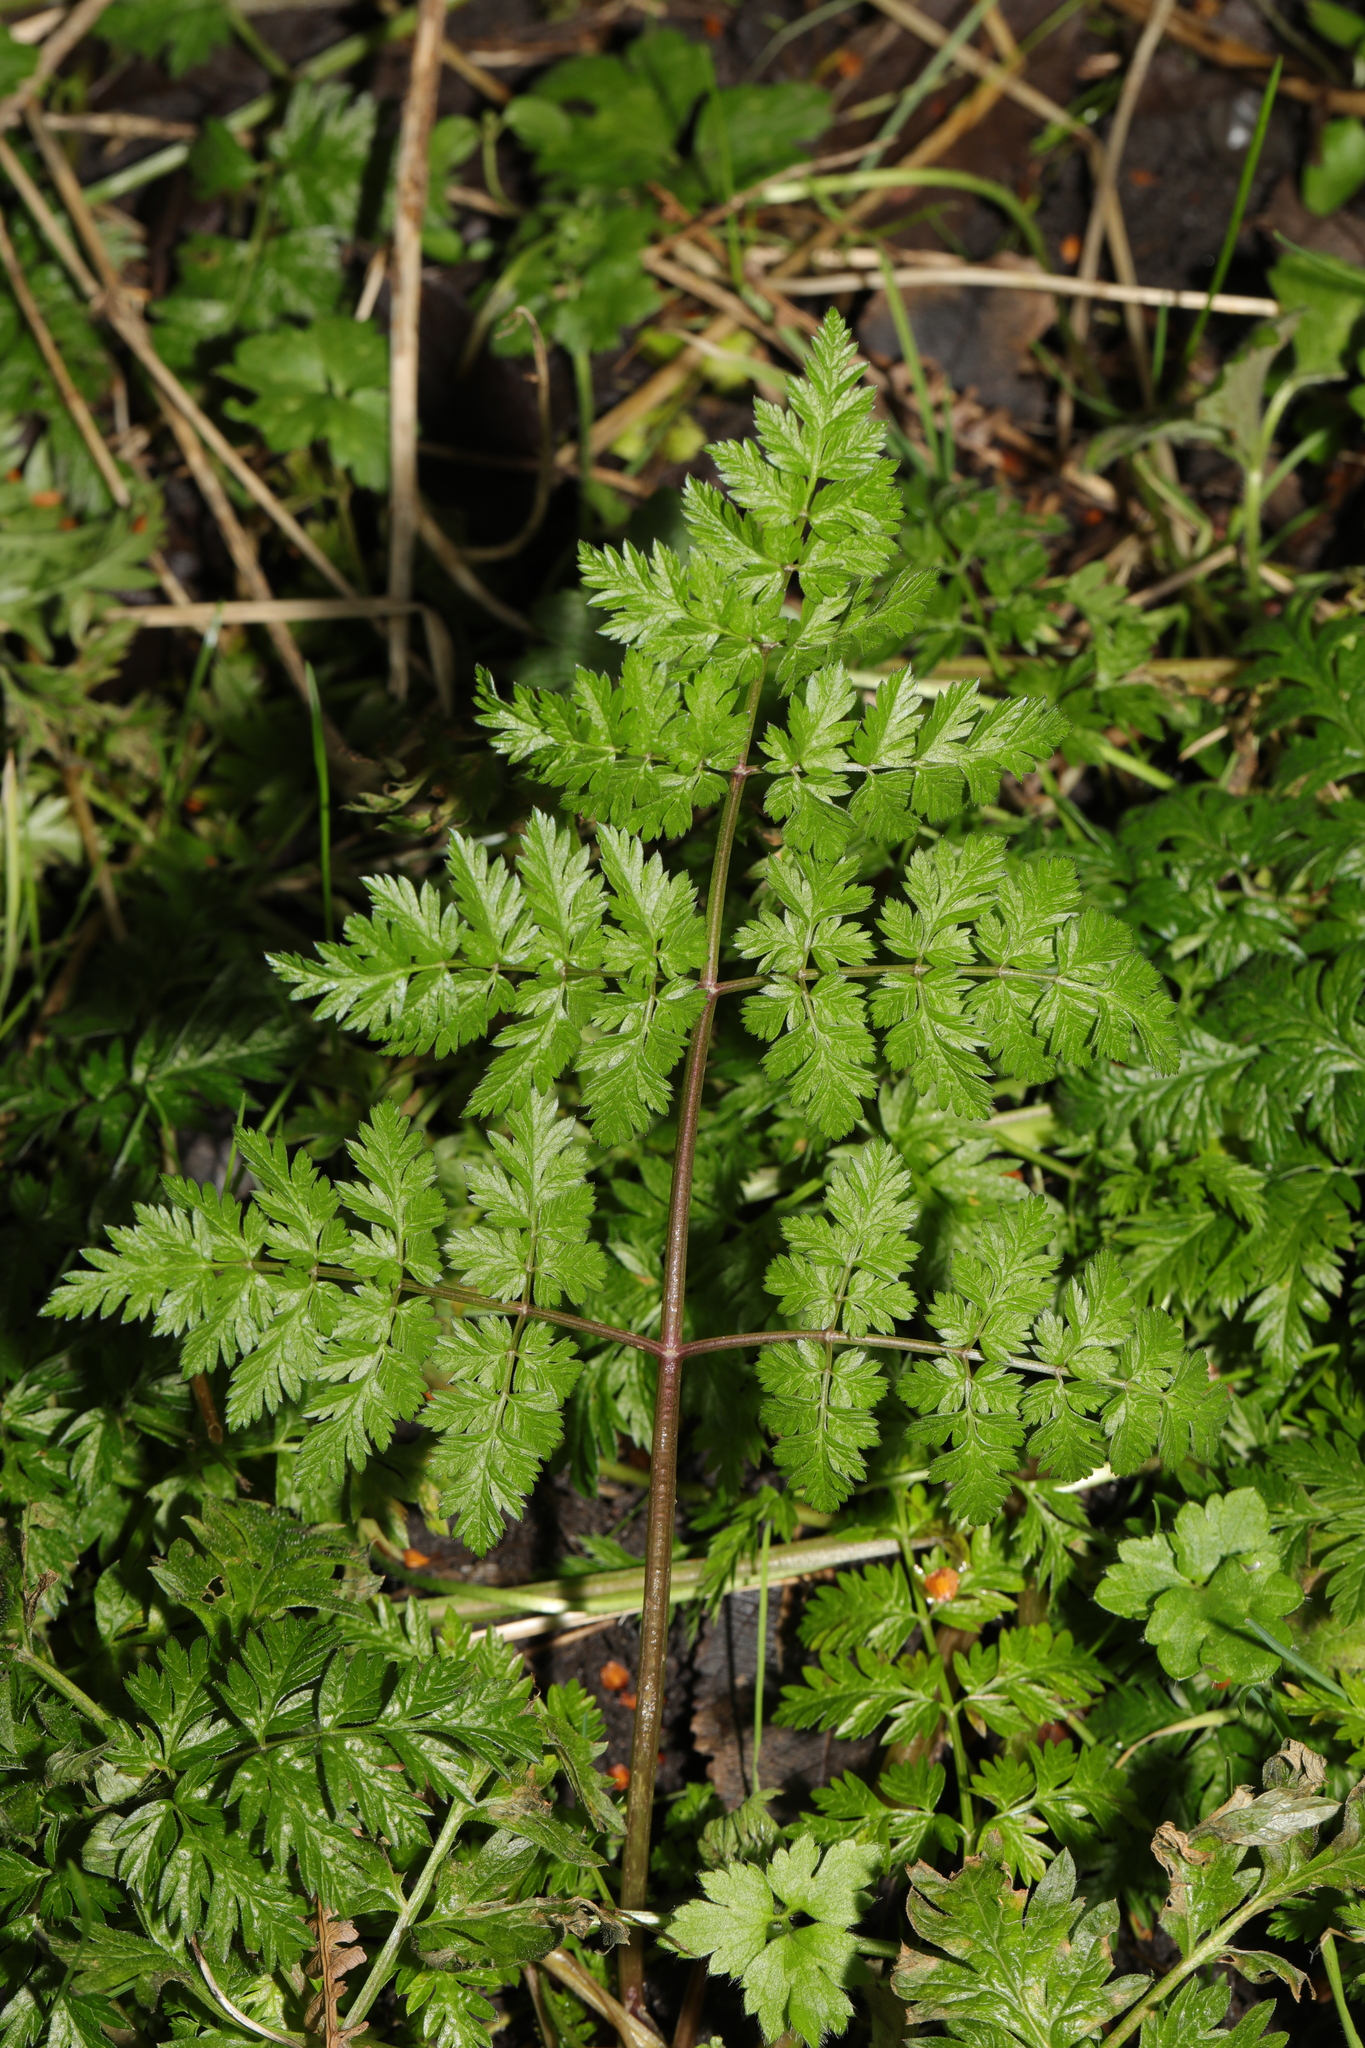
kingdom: Plantae
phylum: Tracheophyta
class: Magnoliopsida
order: Apiales
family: Apiaceae
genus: Anthriscus
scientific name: Anthriscus sylvestris
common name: Cow parsley
